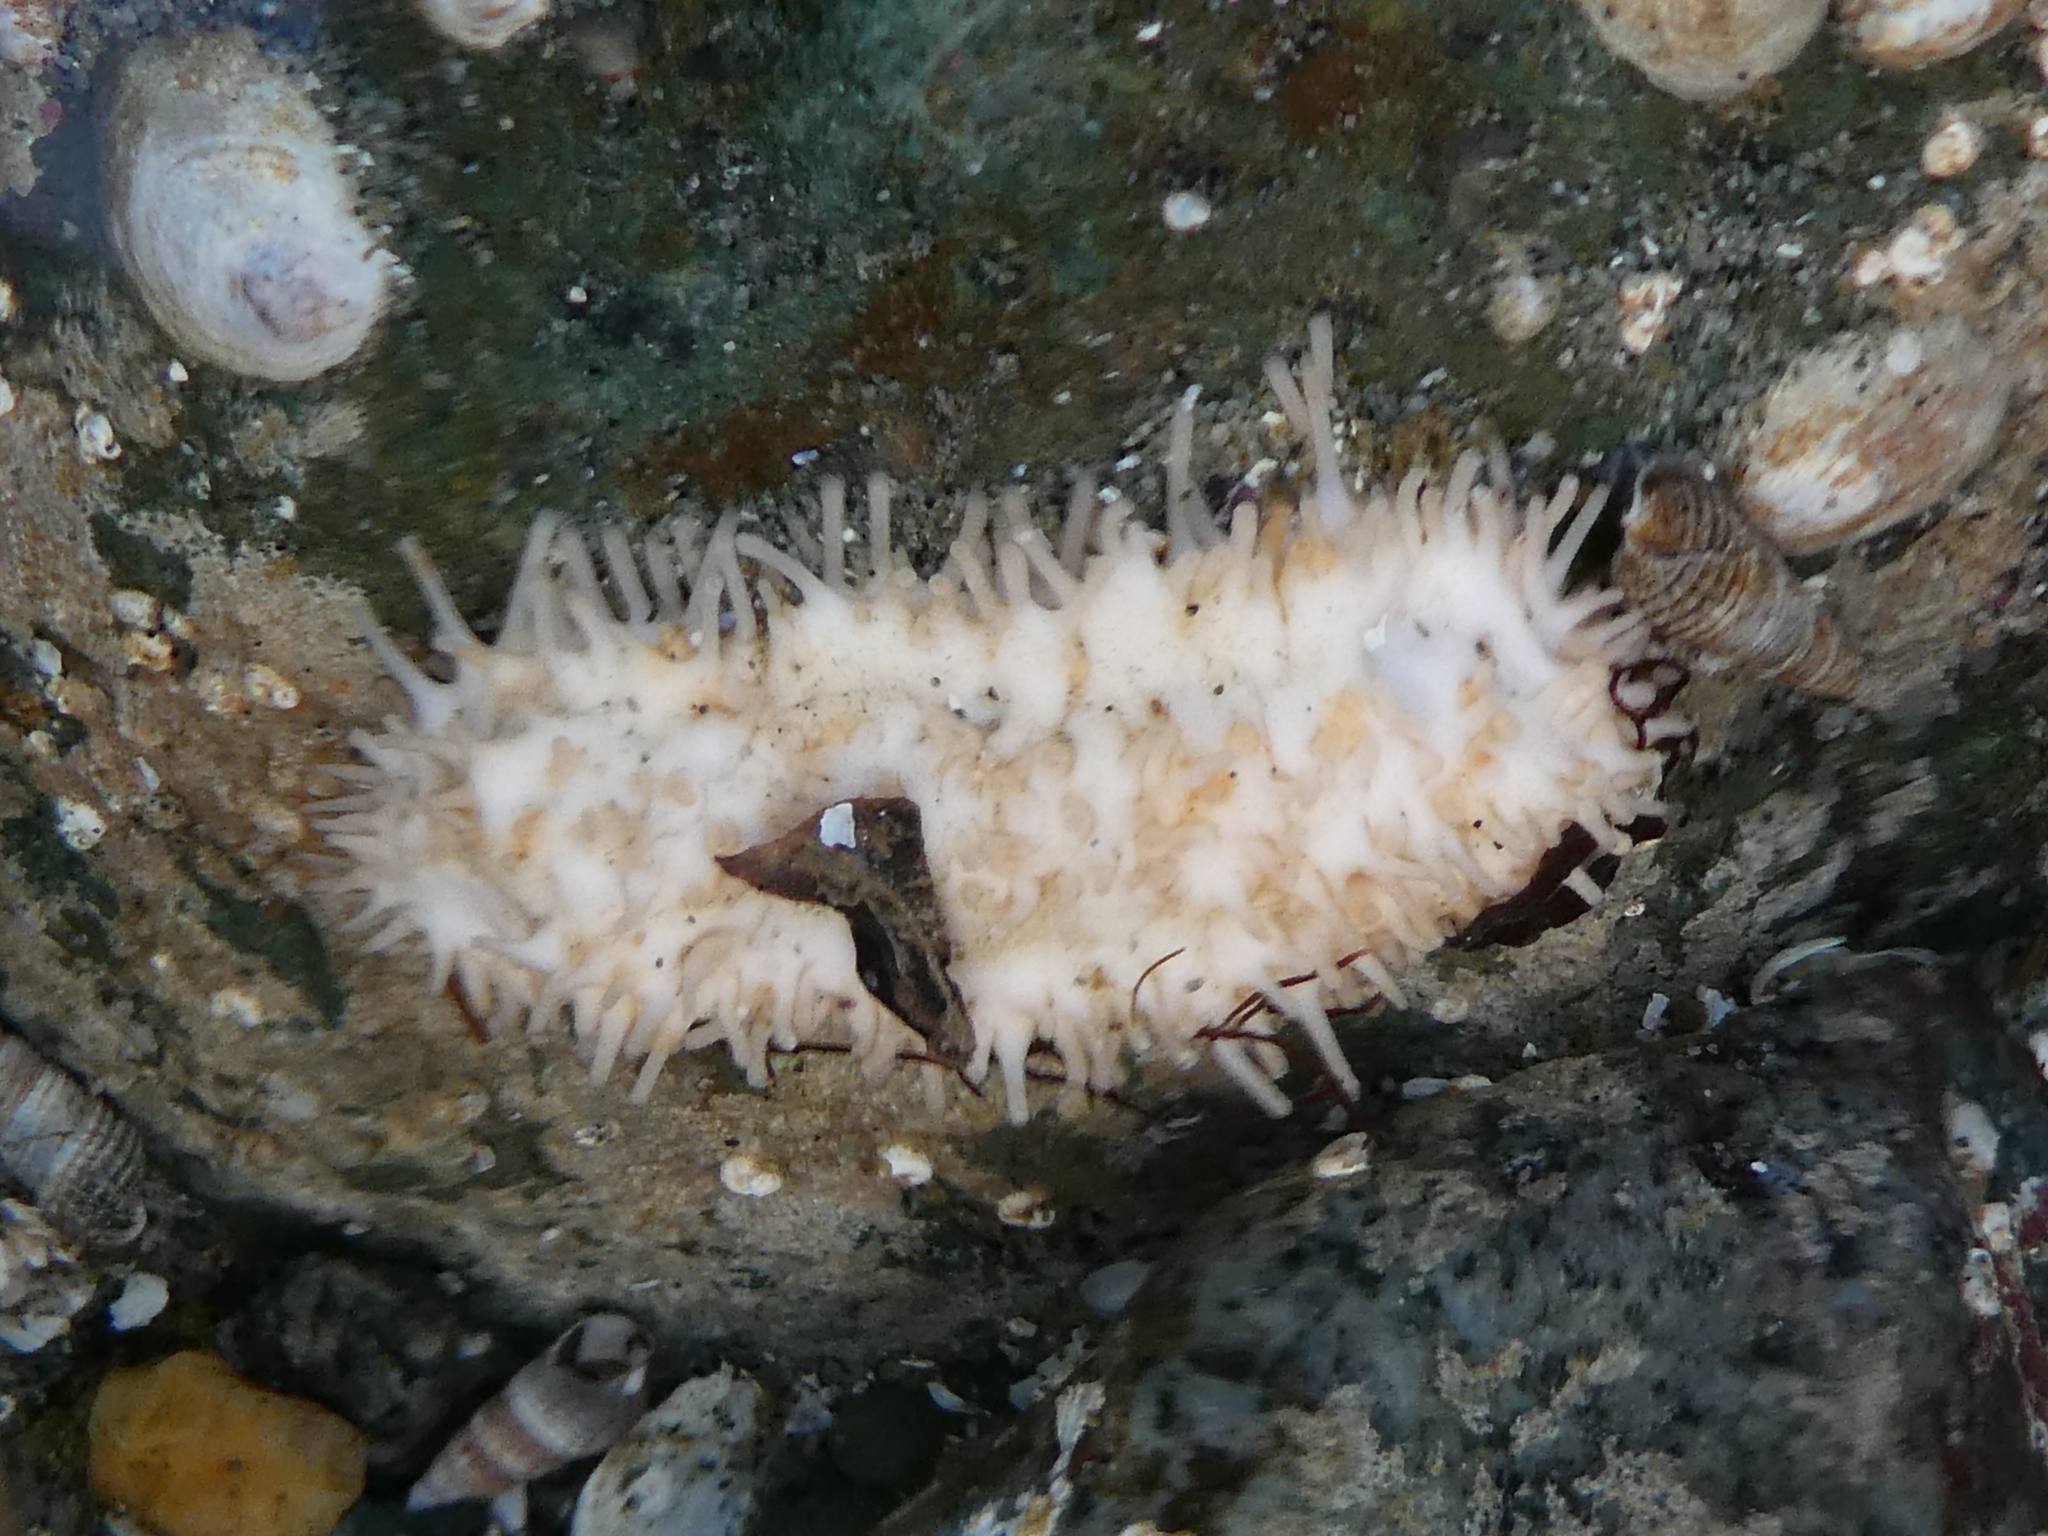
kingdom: Animalia
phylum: Echinodermata
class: Holothuroidea
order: Dendrochirotida
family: Sclerodactylidae
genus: Eupentacta
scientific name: Eupentacta quinquesemita
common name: Pentamerous sea cucumber
